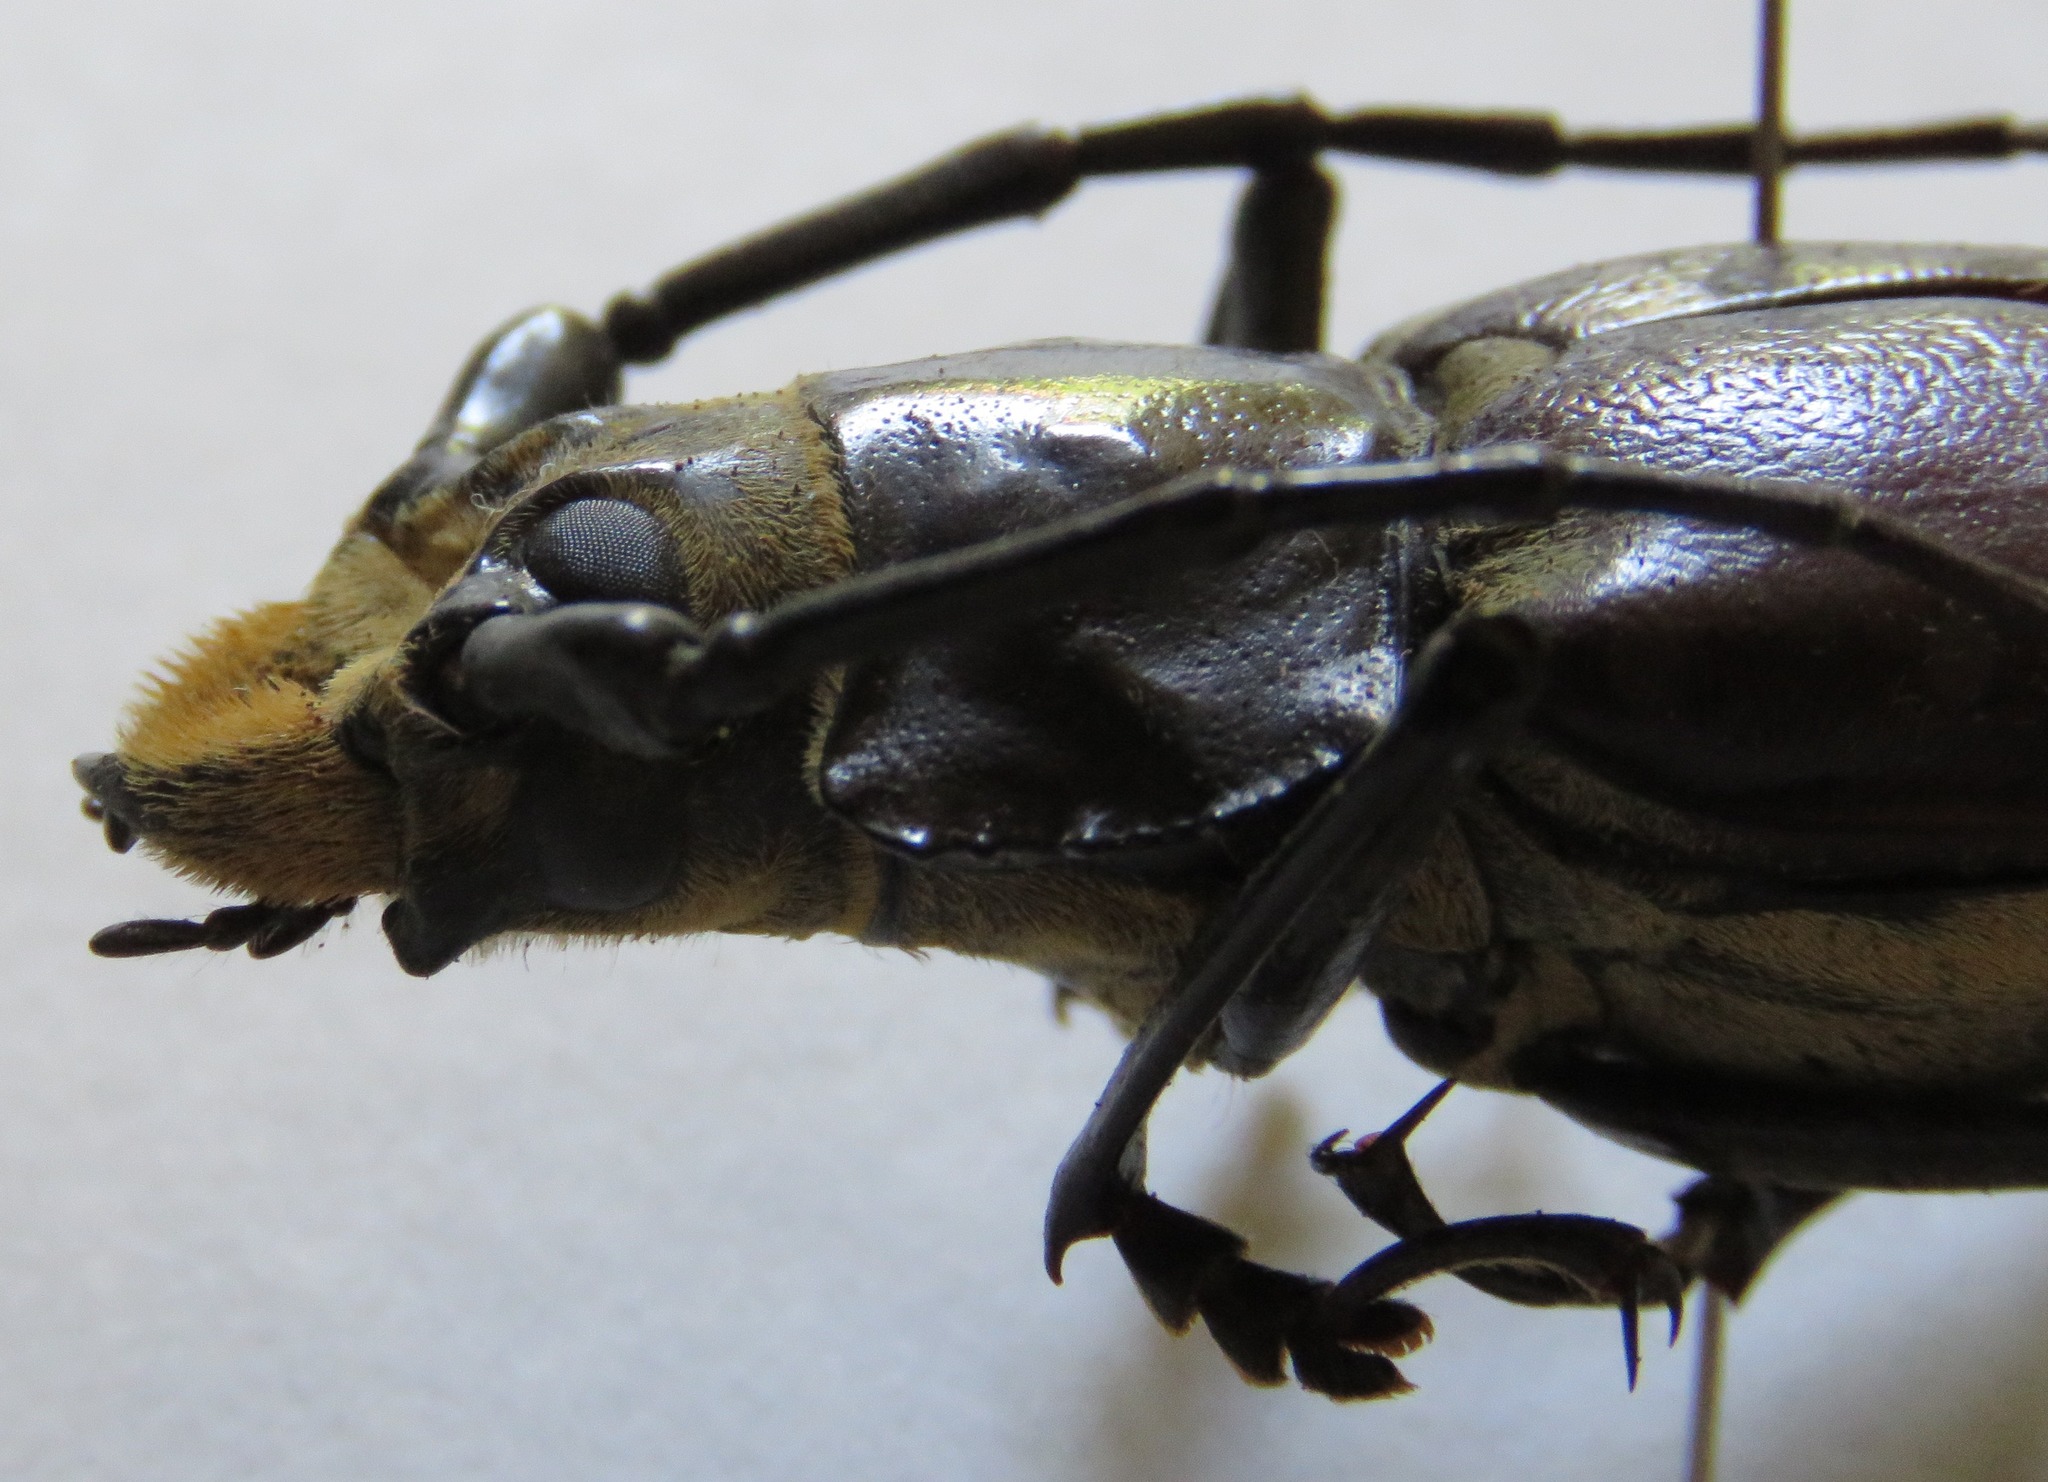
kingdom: Animalia
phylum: Arthropoda
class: Insecta
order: Coleoptera
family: Cerambycidae
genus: Callipogon
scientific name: Callipogon lemoinei
